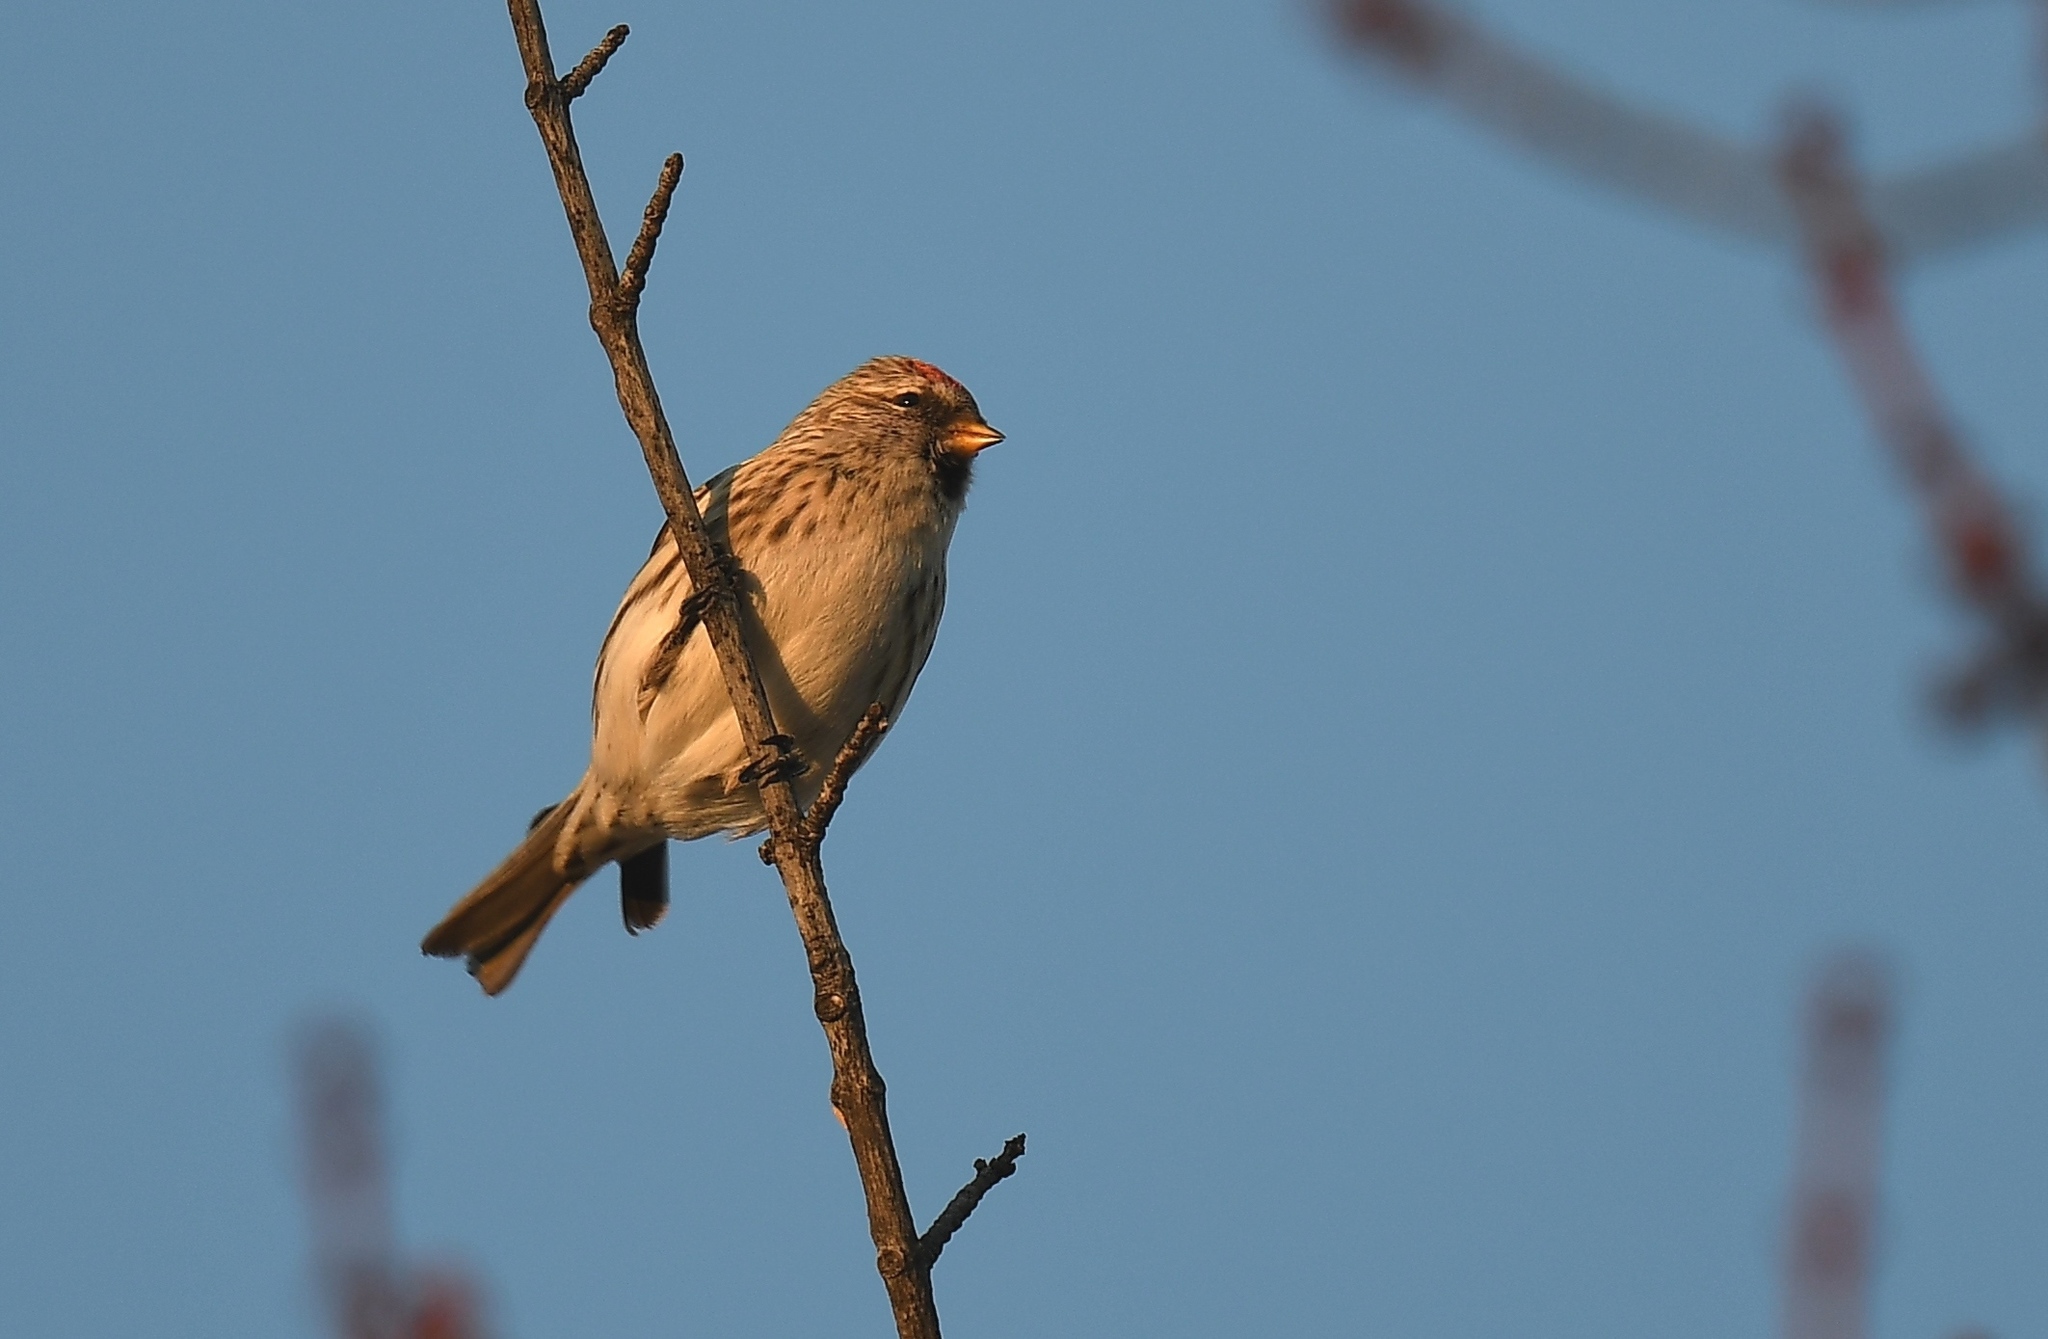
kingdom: Animalia
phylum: Chordata
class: Aves
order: Passeriformes
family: Fringillidae
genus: Acanthis
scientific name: Acanthis flammea
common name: Common redpoll
